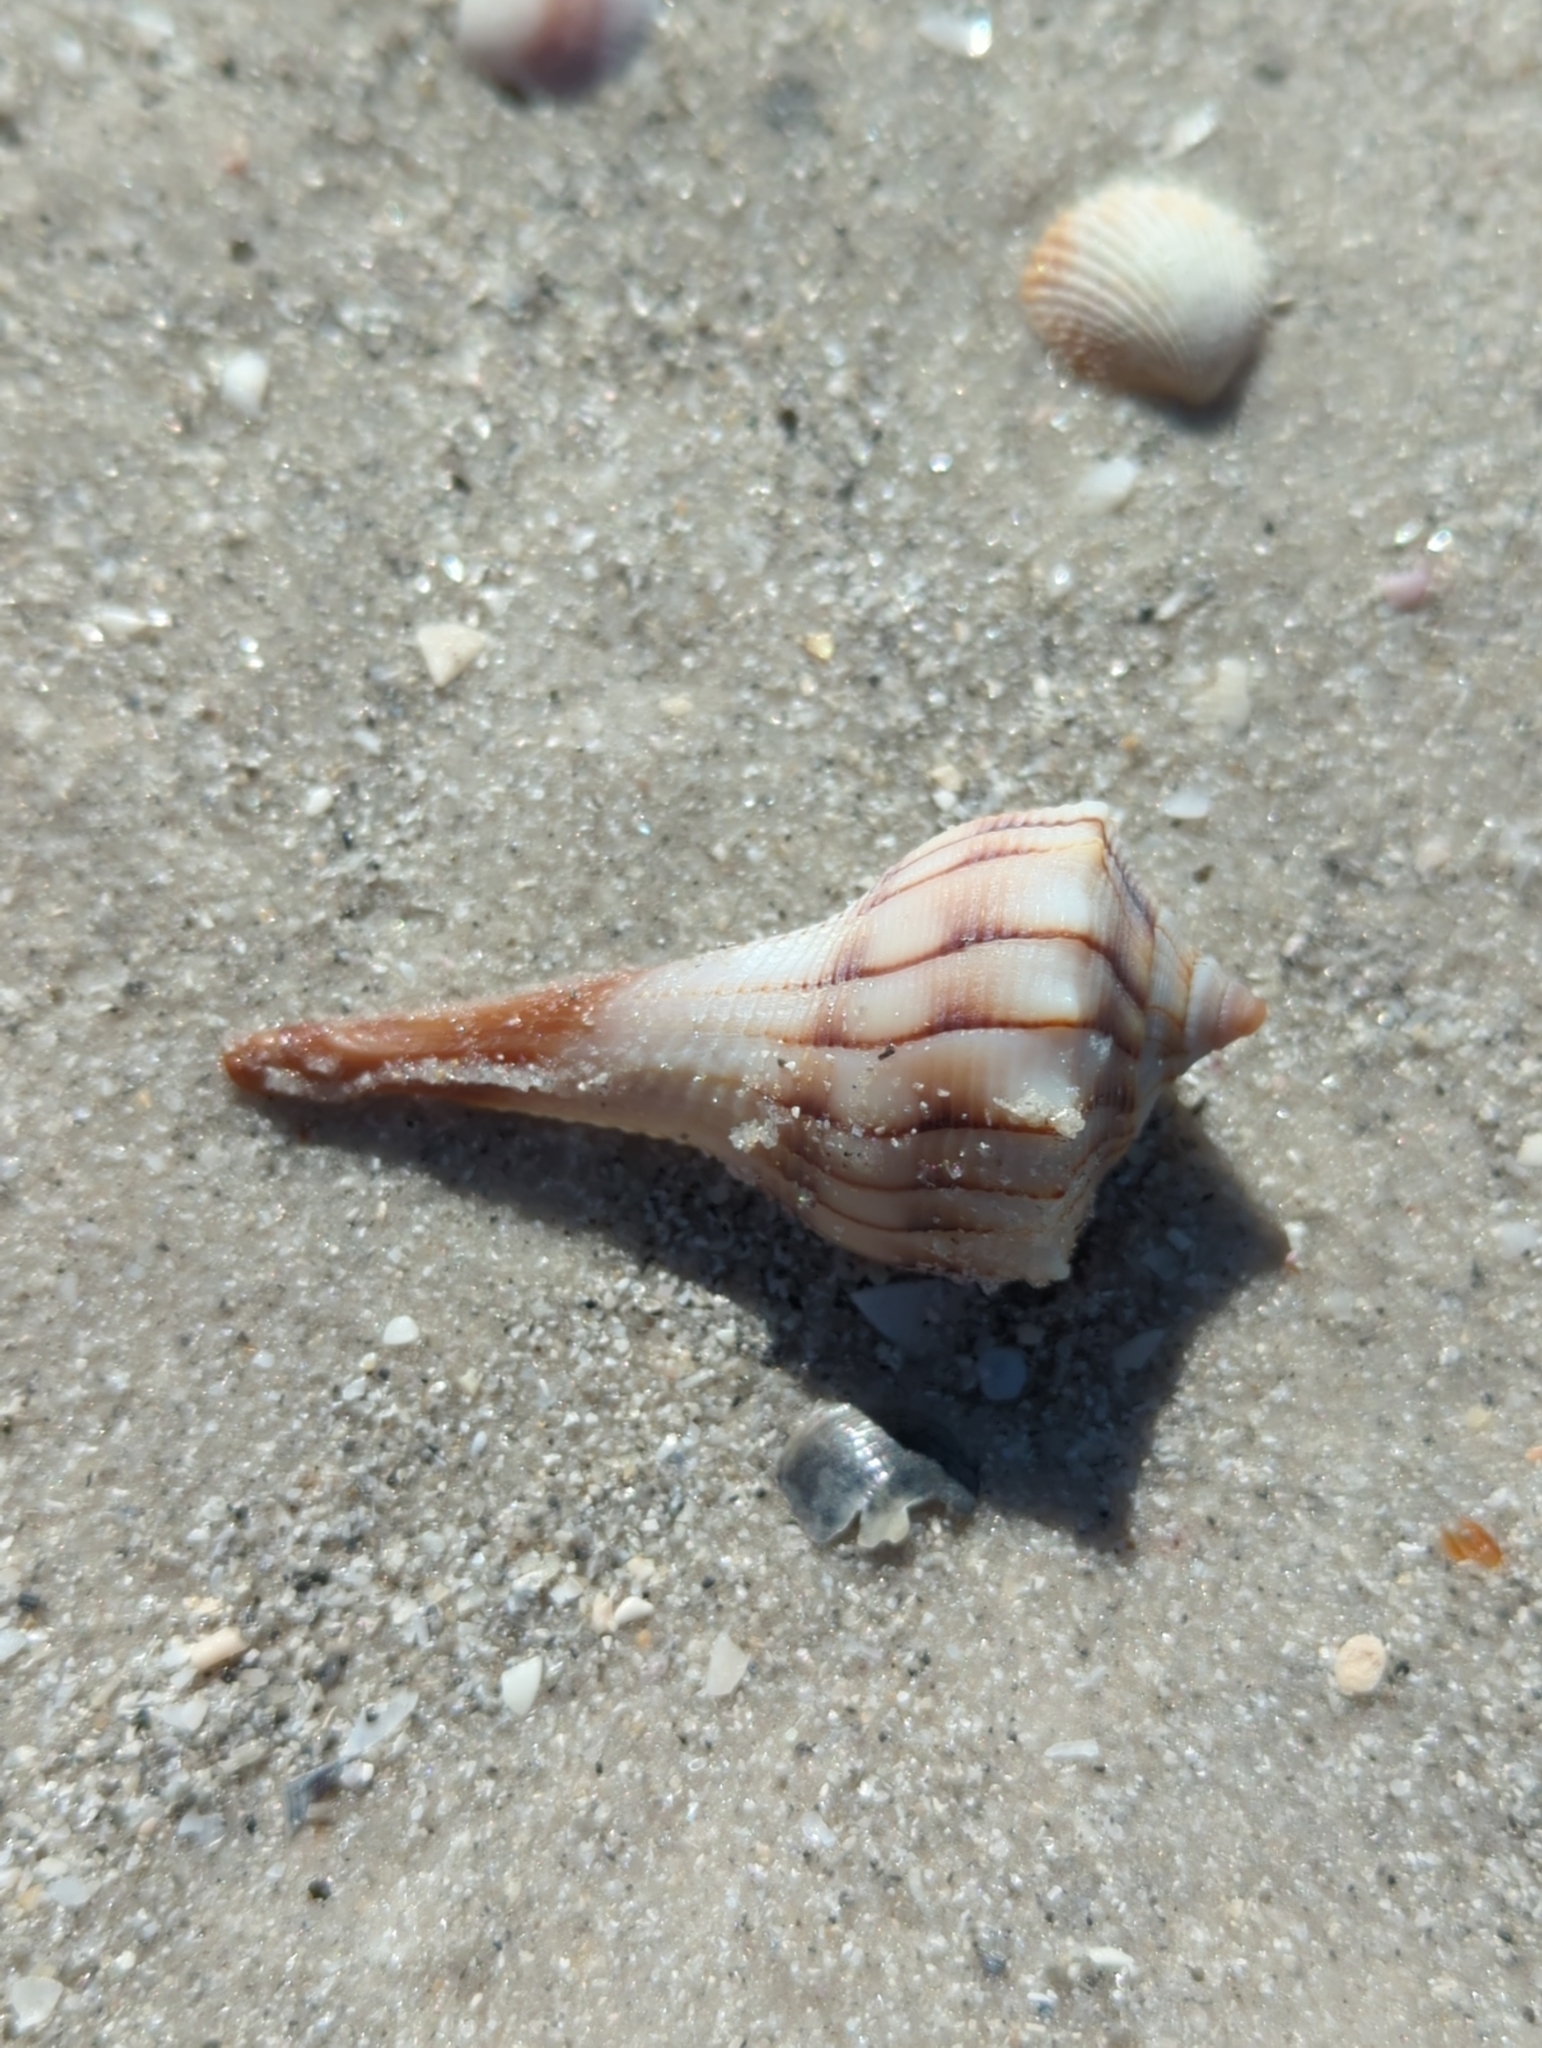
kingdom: Animalia
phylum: Mollusca
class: Gastropoda
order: Neogastropoda
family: Busyconidae
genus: Sinistrofulgur
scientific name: Sinistrofulgur sinistrum
